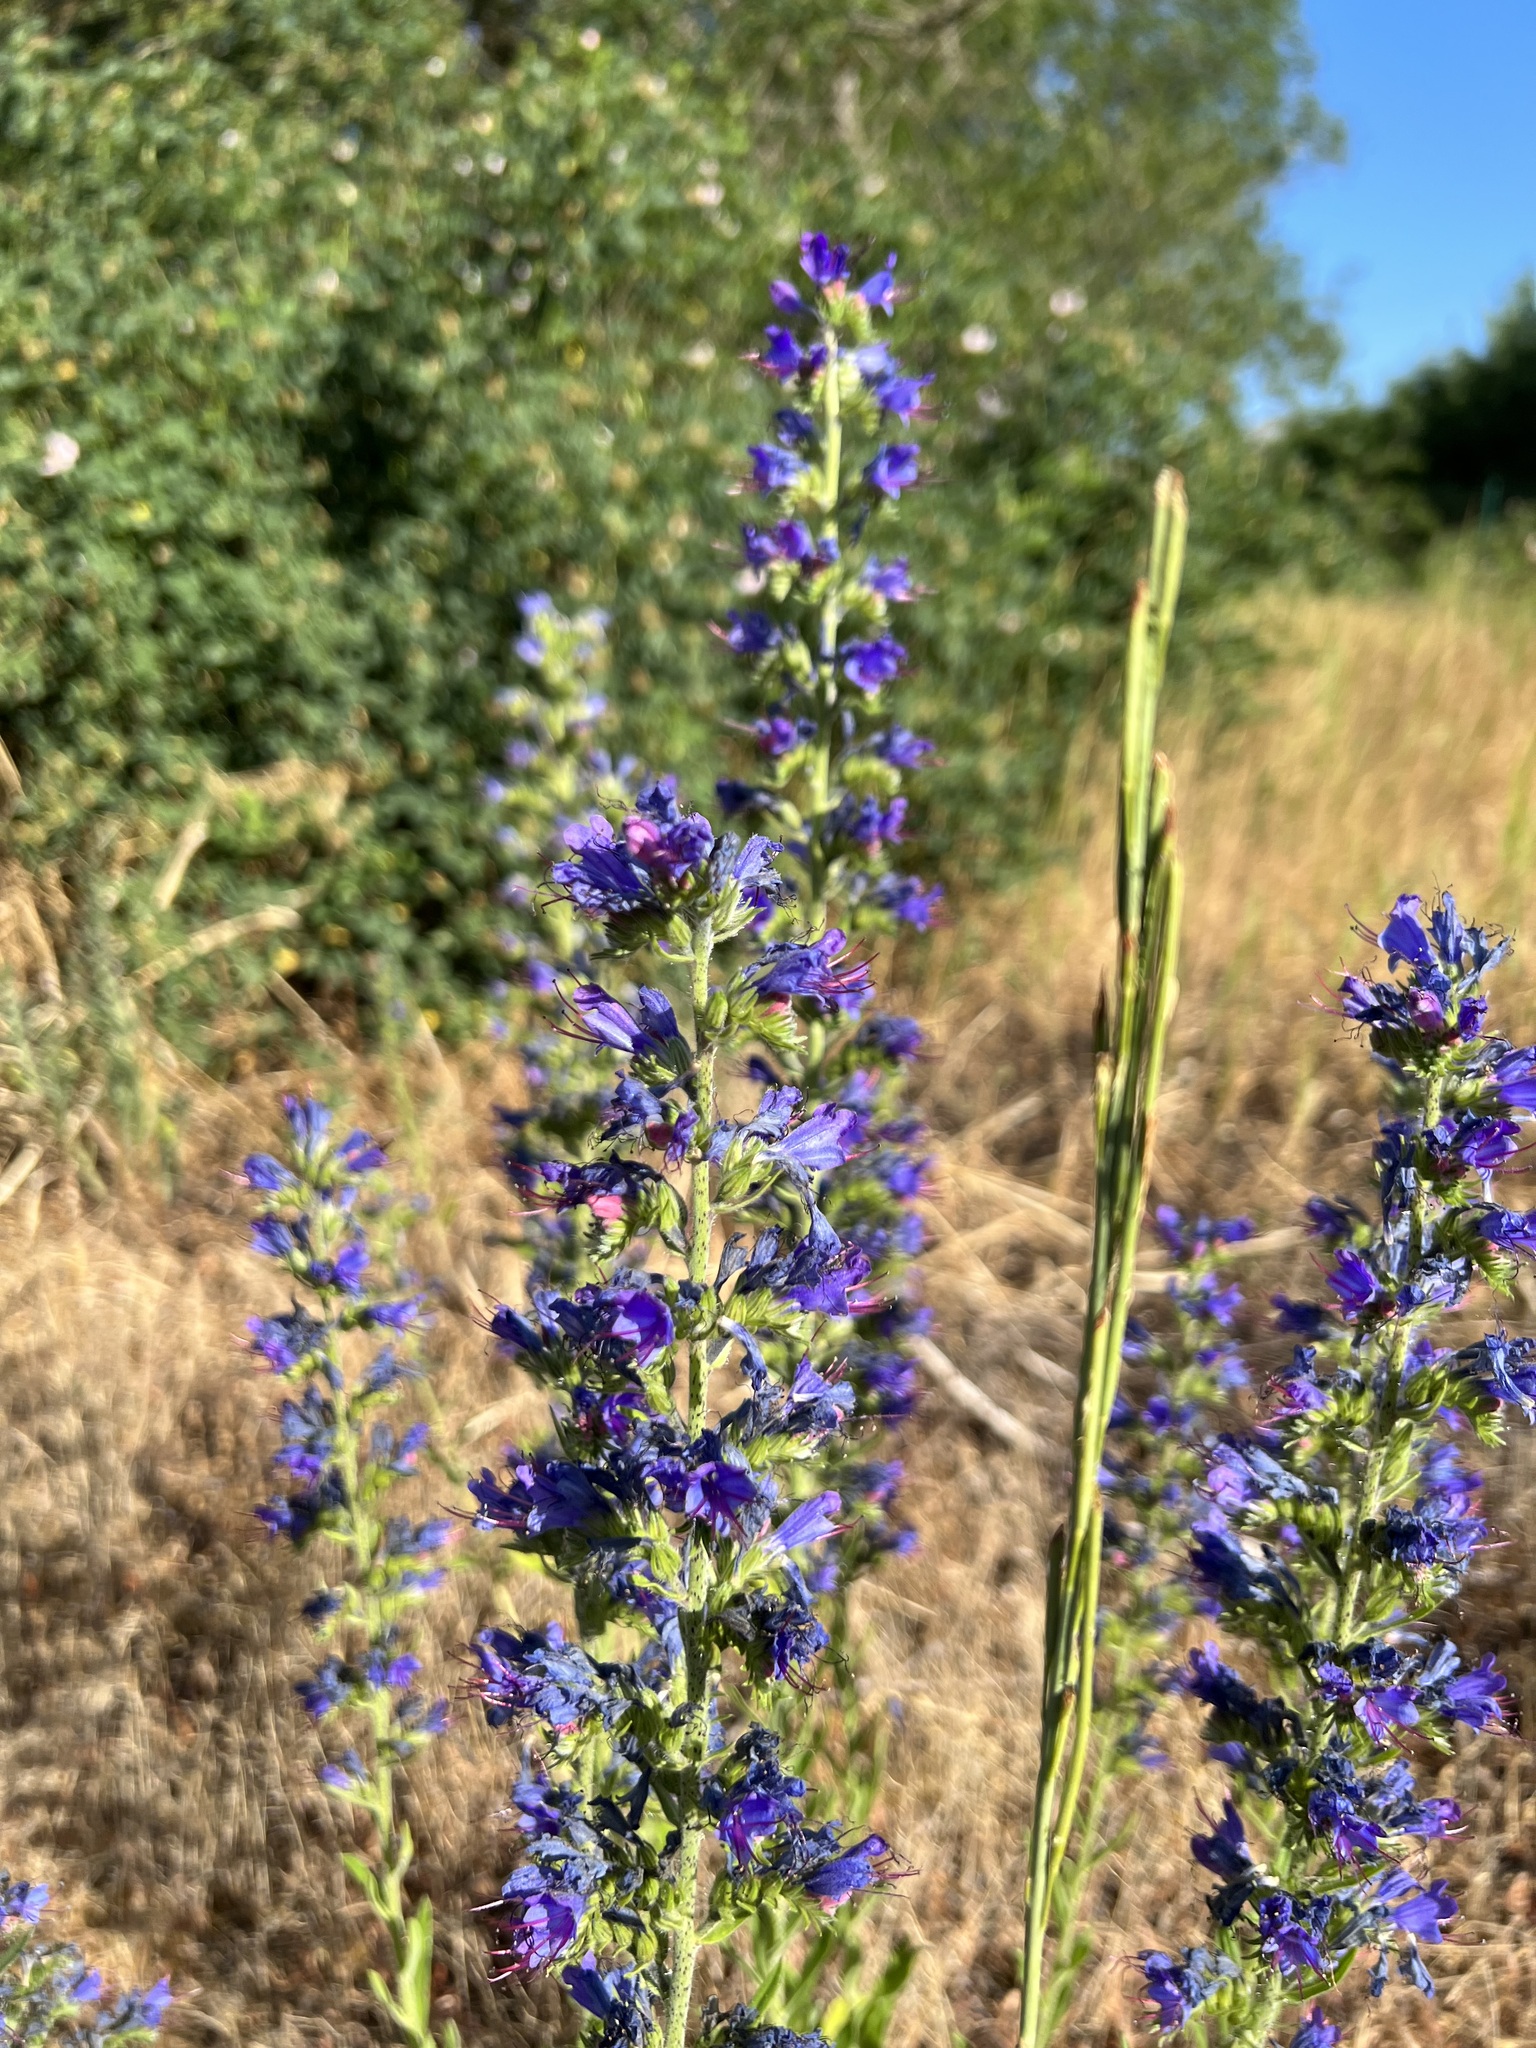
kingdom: Plantae
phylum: Tracheophyta
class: Magnoliopsida
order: Boraginales
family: Boraginaceae
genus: Echium
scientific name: Echium vulgare
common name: Common viper's bugloss
